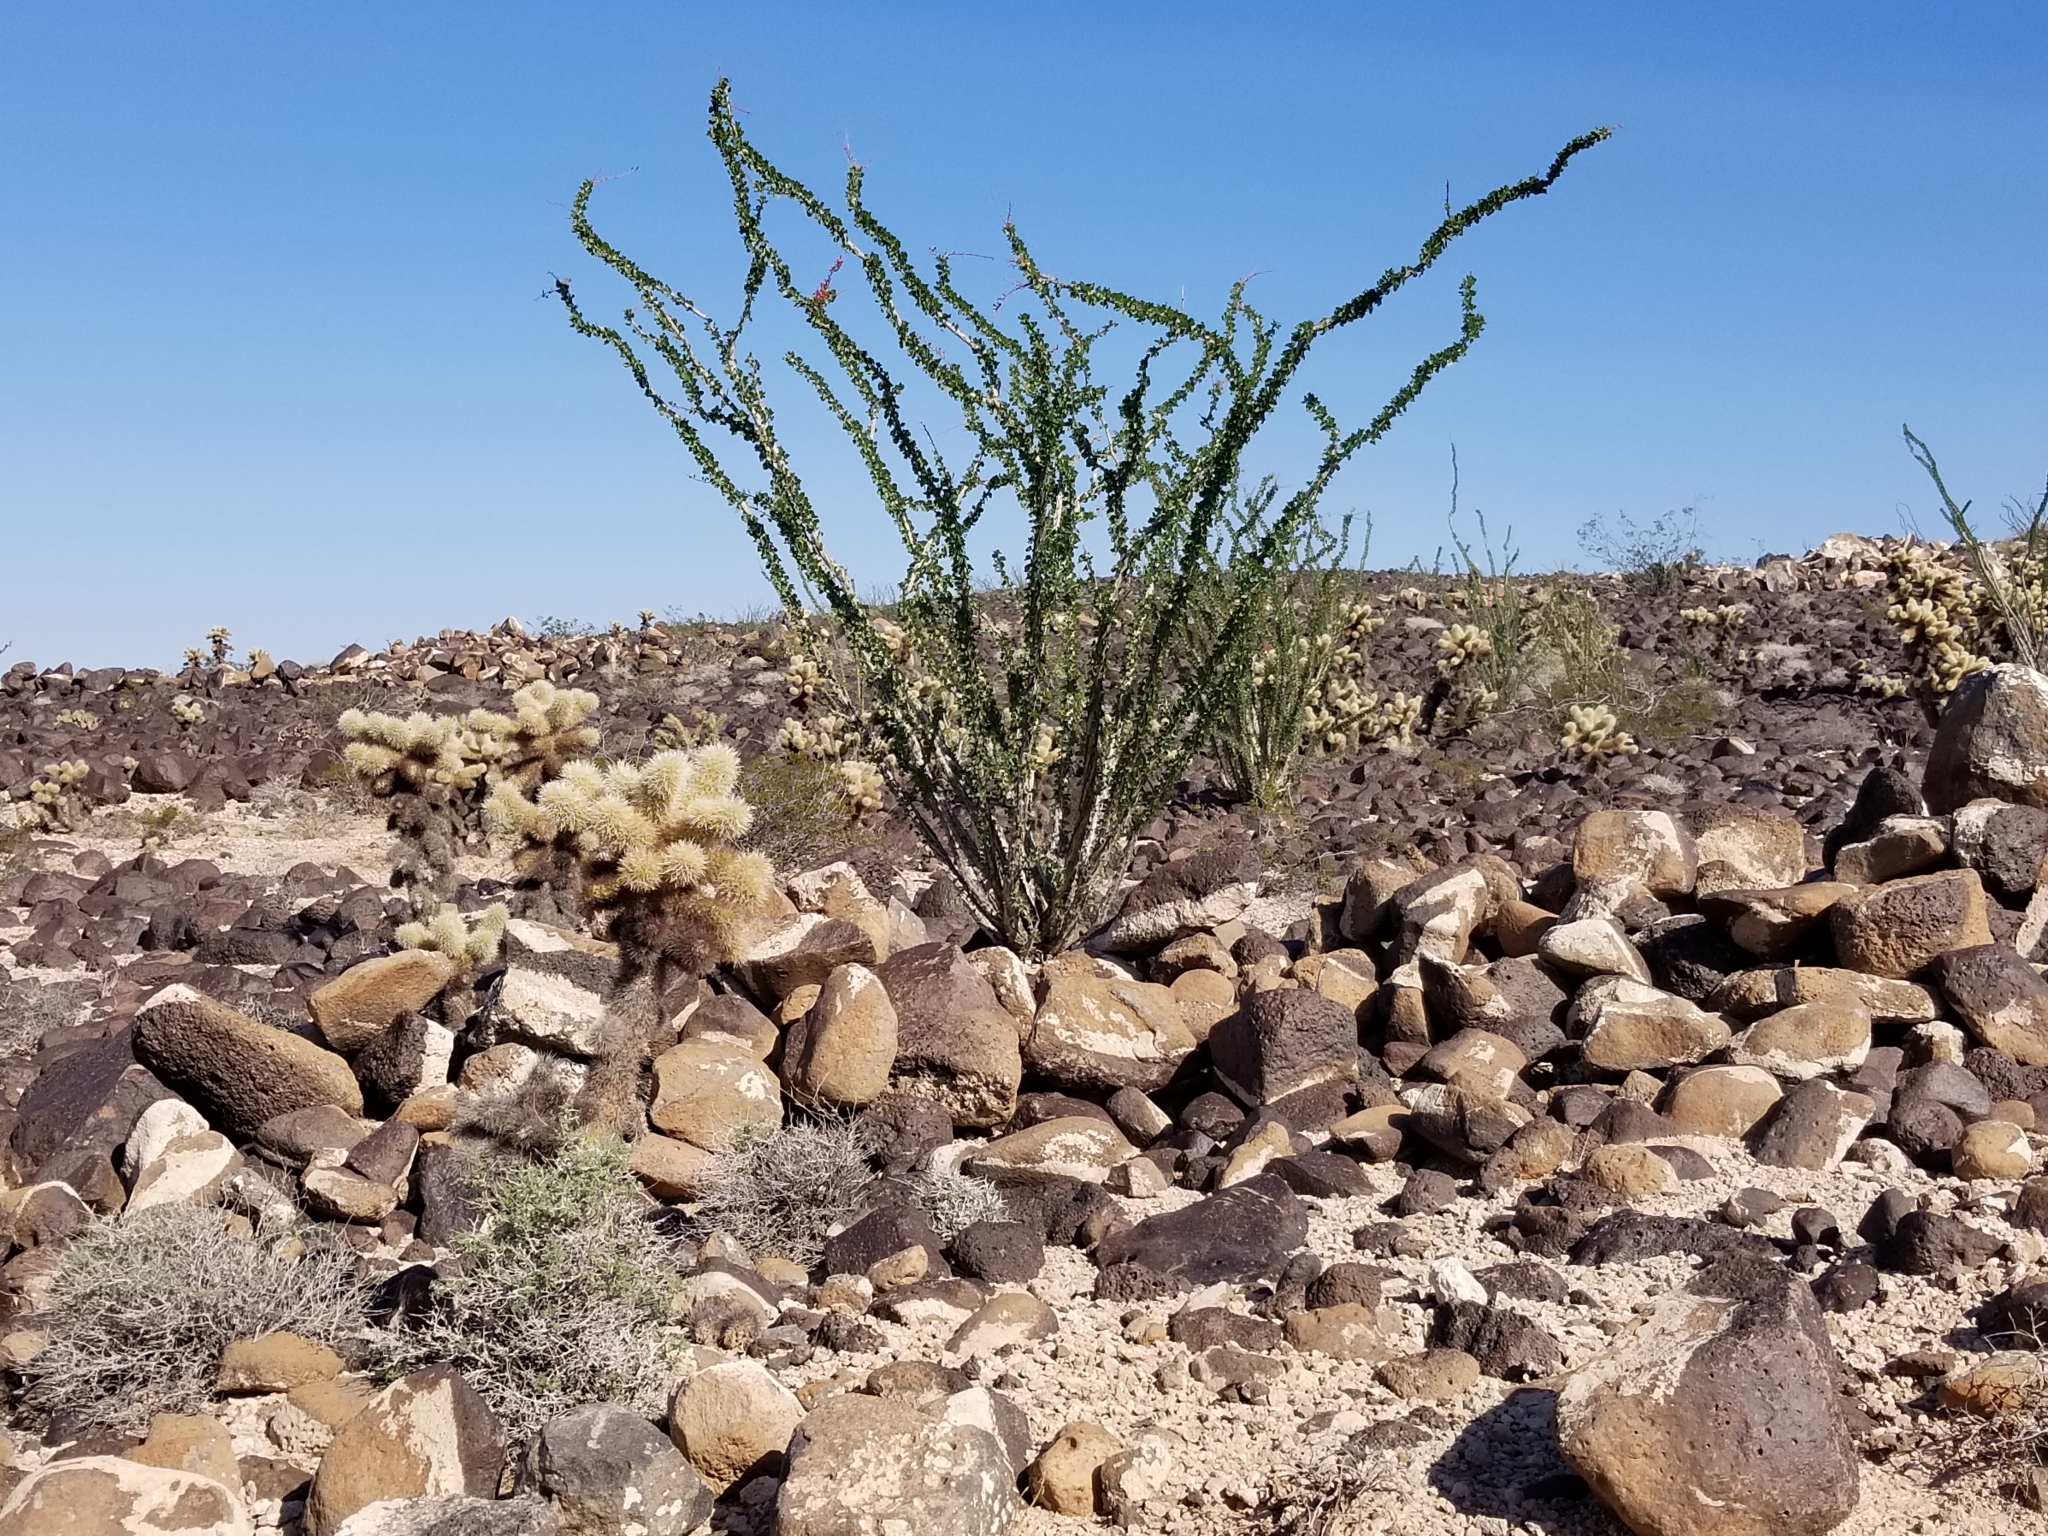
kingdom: Plantae
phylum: Tracheophyta
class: Magnoliopsida
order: Ericales
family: Fouquieriaceae
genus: Fouquieria
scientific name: Fouquieria splendens
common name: Vine-cactus
